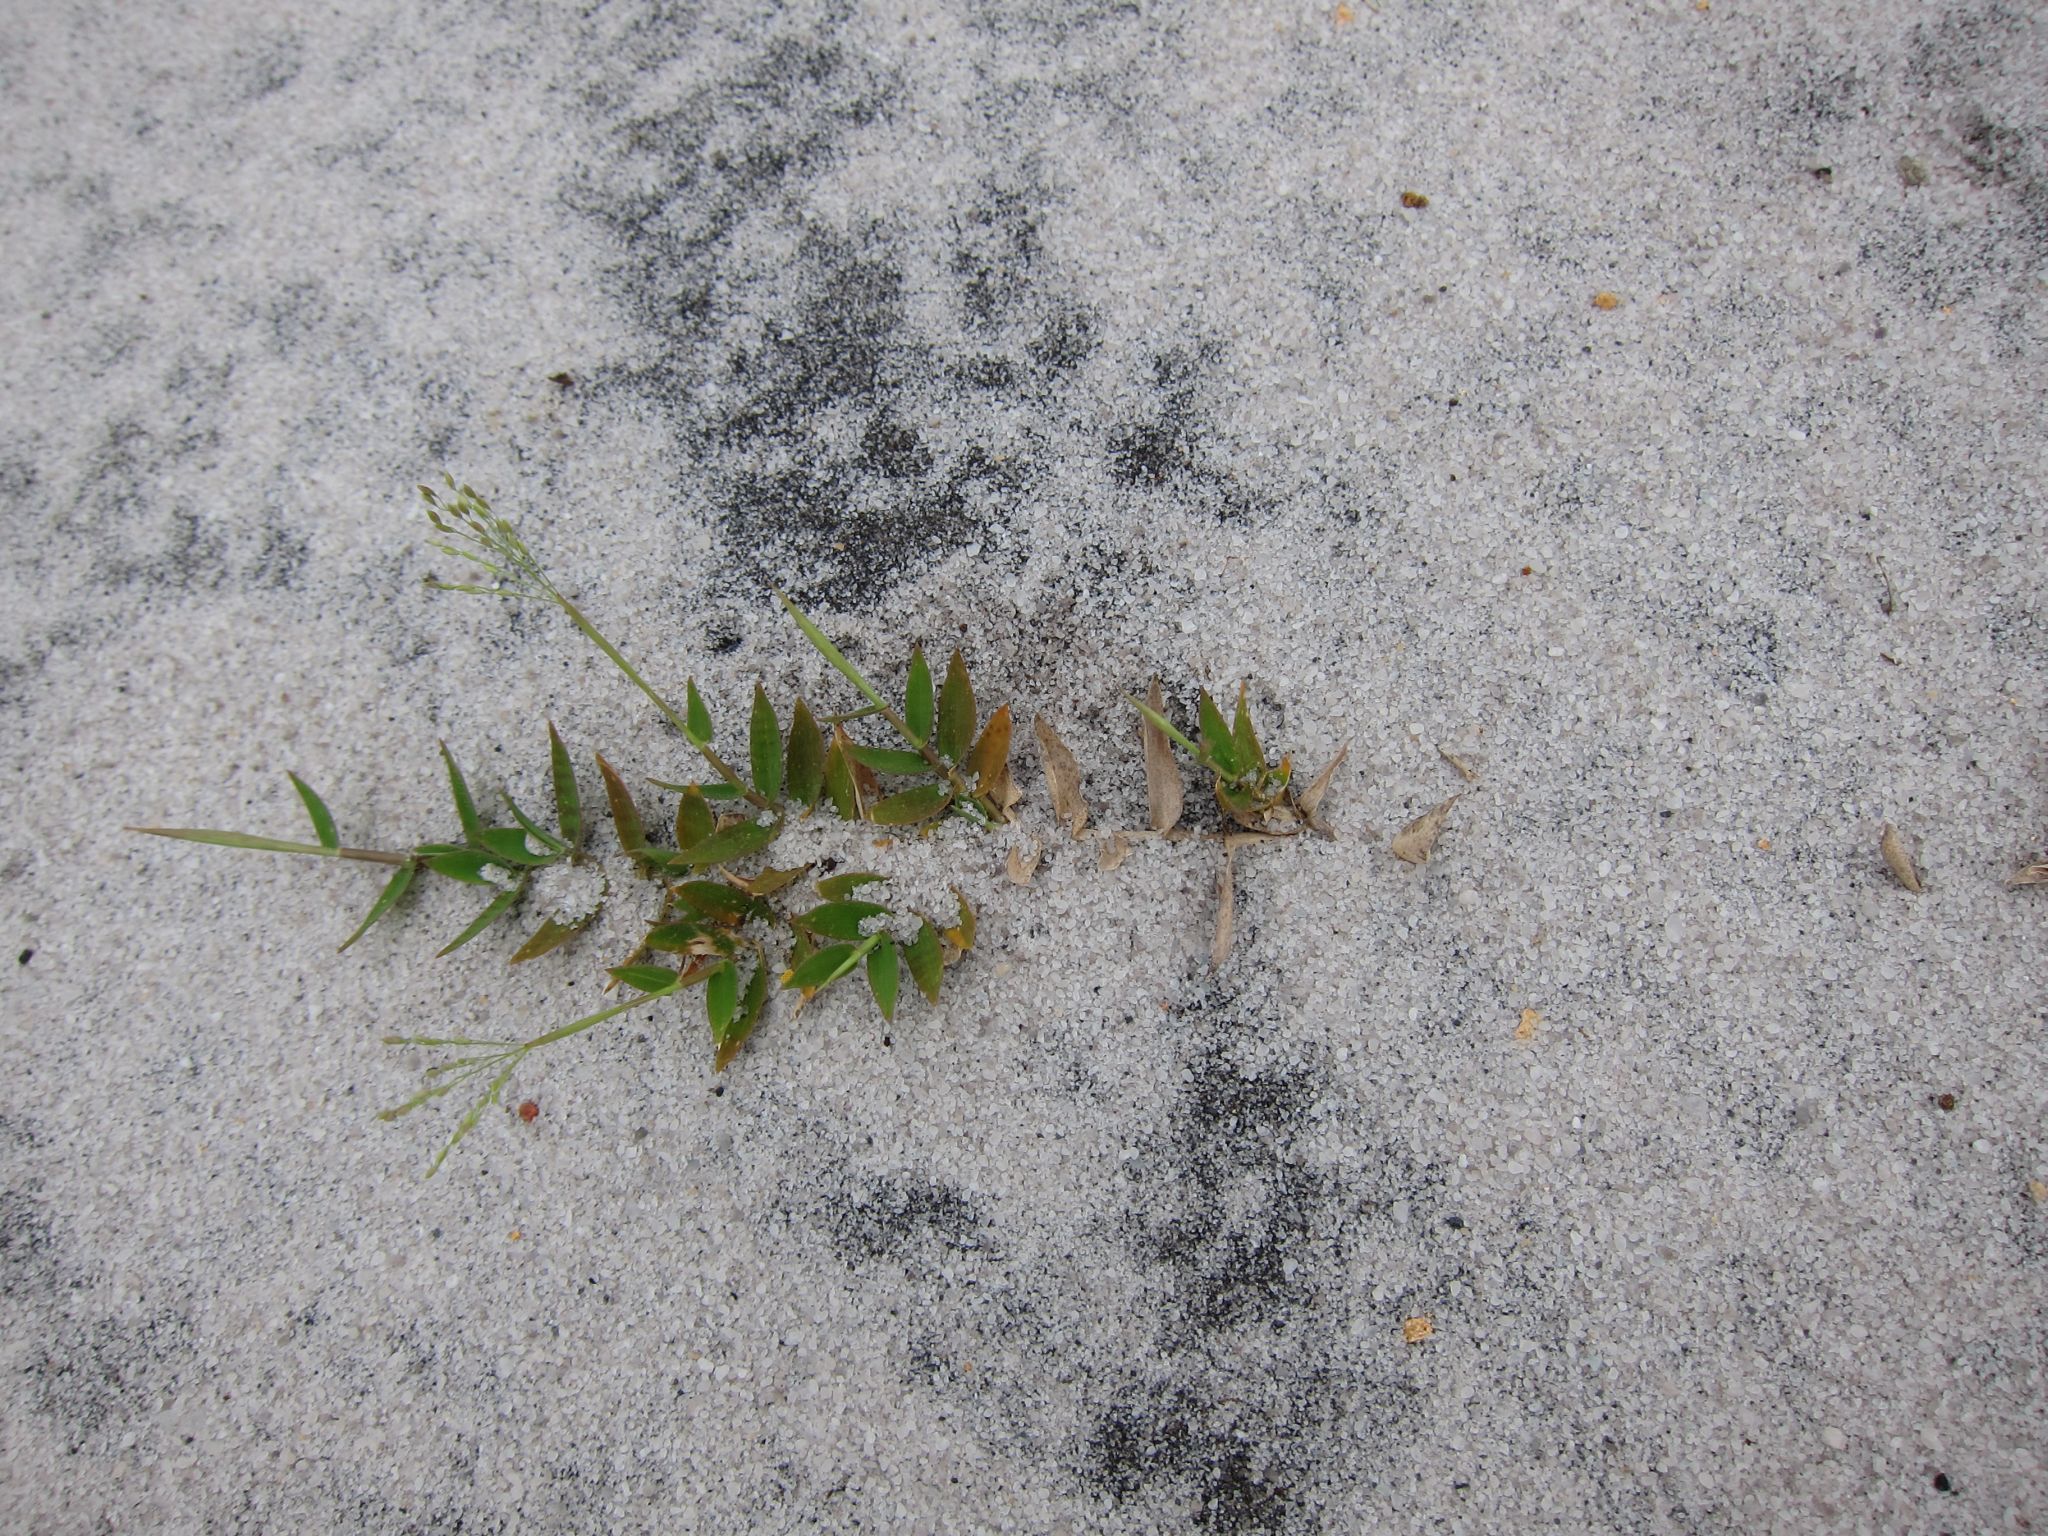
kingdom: Plantae
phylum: Tracheophyta
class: Liliopsida
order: Poales
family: Poaceae
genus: Urochloa
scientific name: Urochloa Brachiaria umbellata
